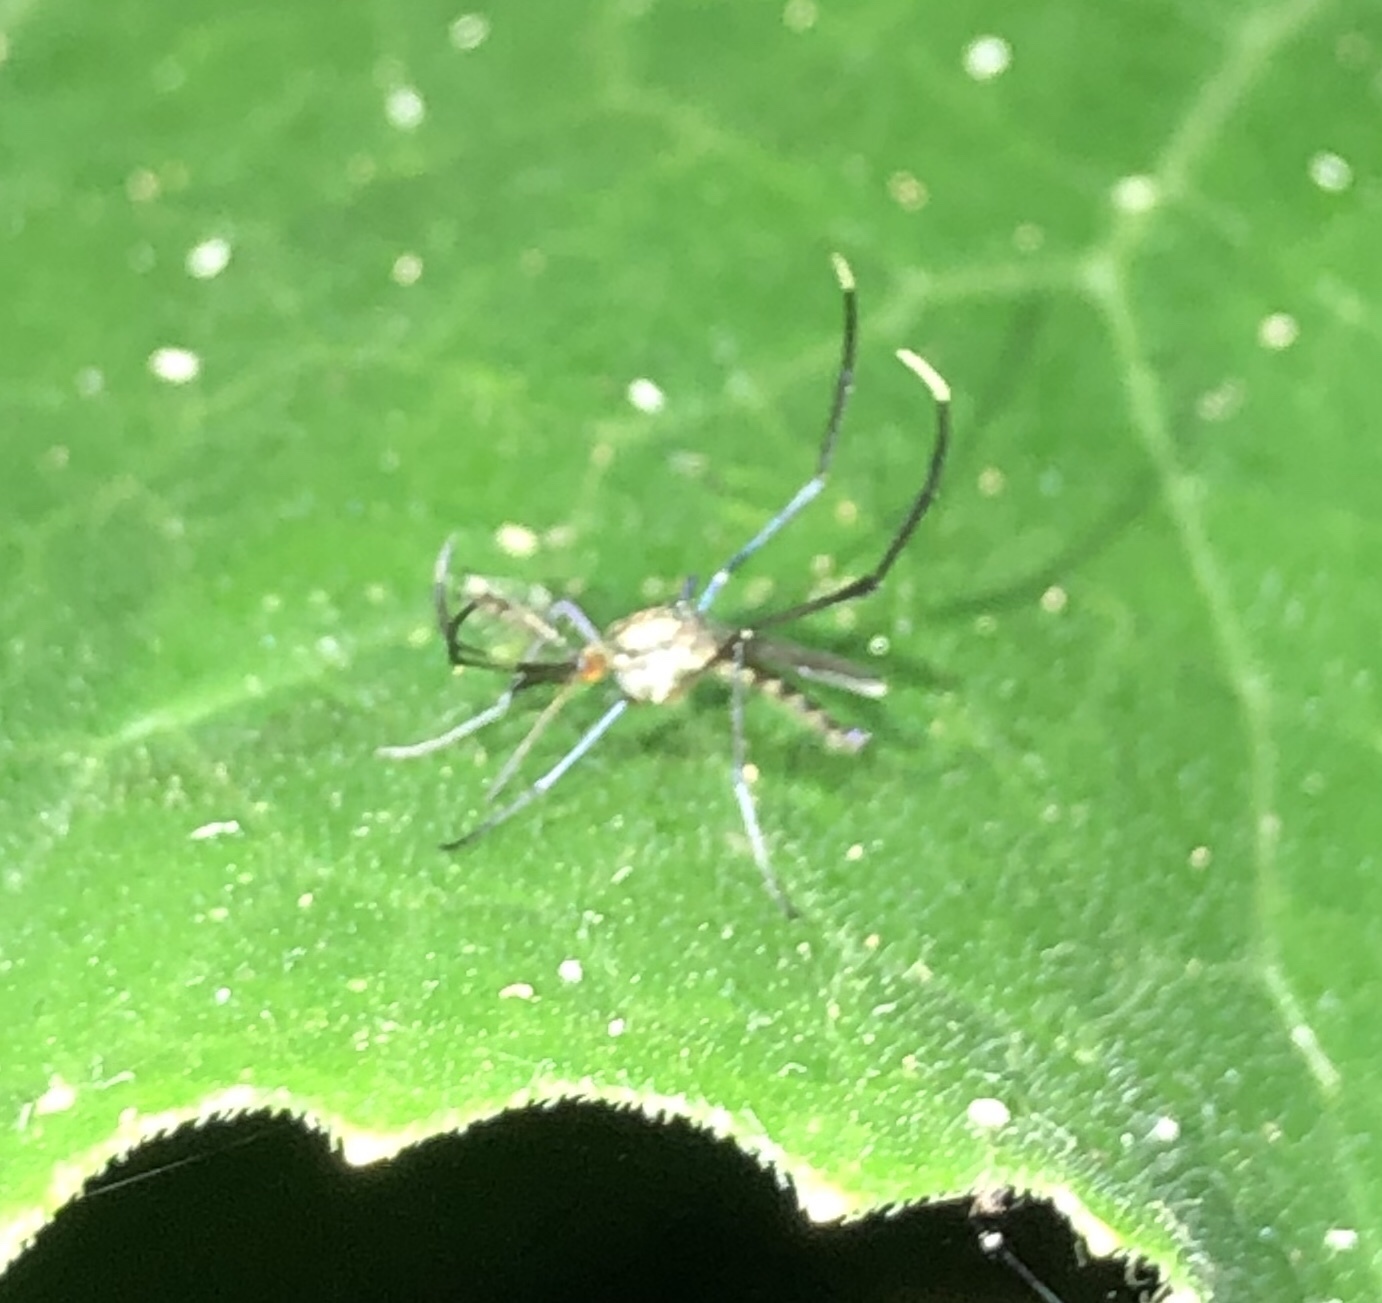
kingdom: Animalia
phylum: Arthropoda
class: Insecta
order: Diptera
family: Culicidae
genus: Psorophora
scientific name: Psorophora ferox
